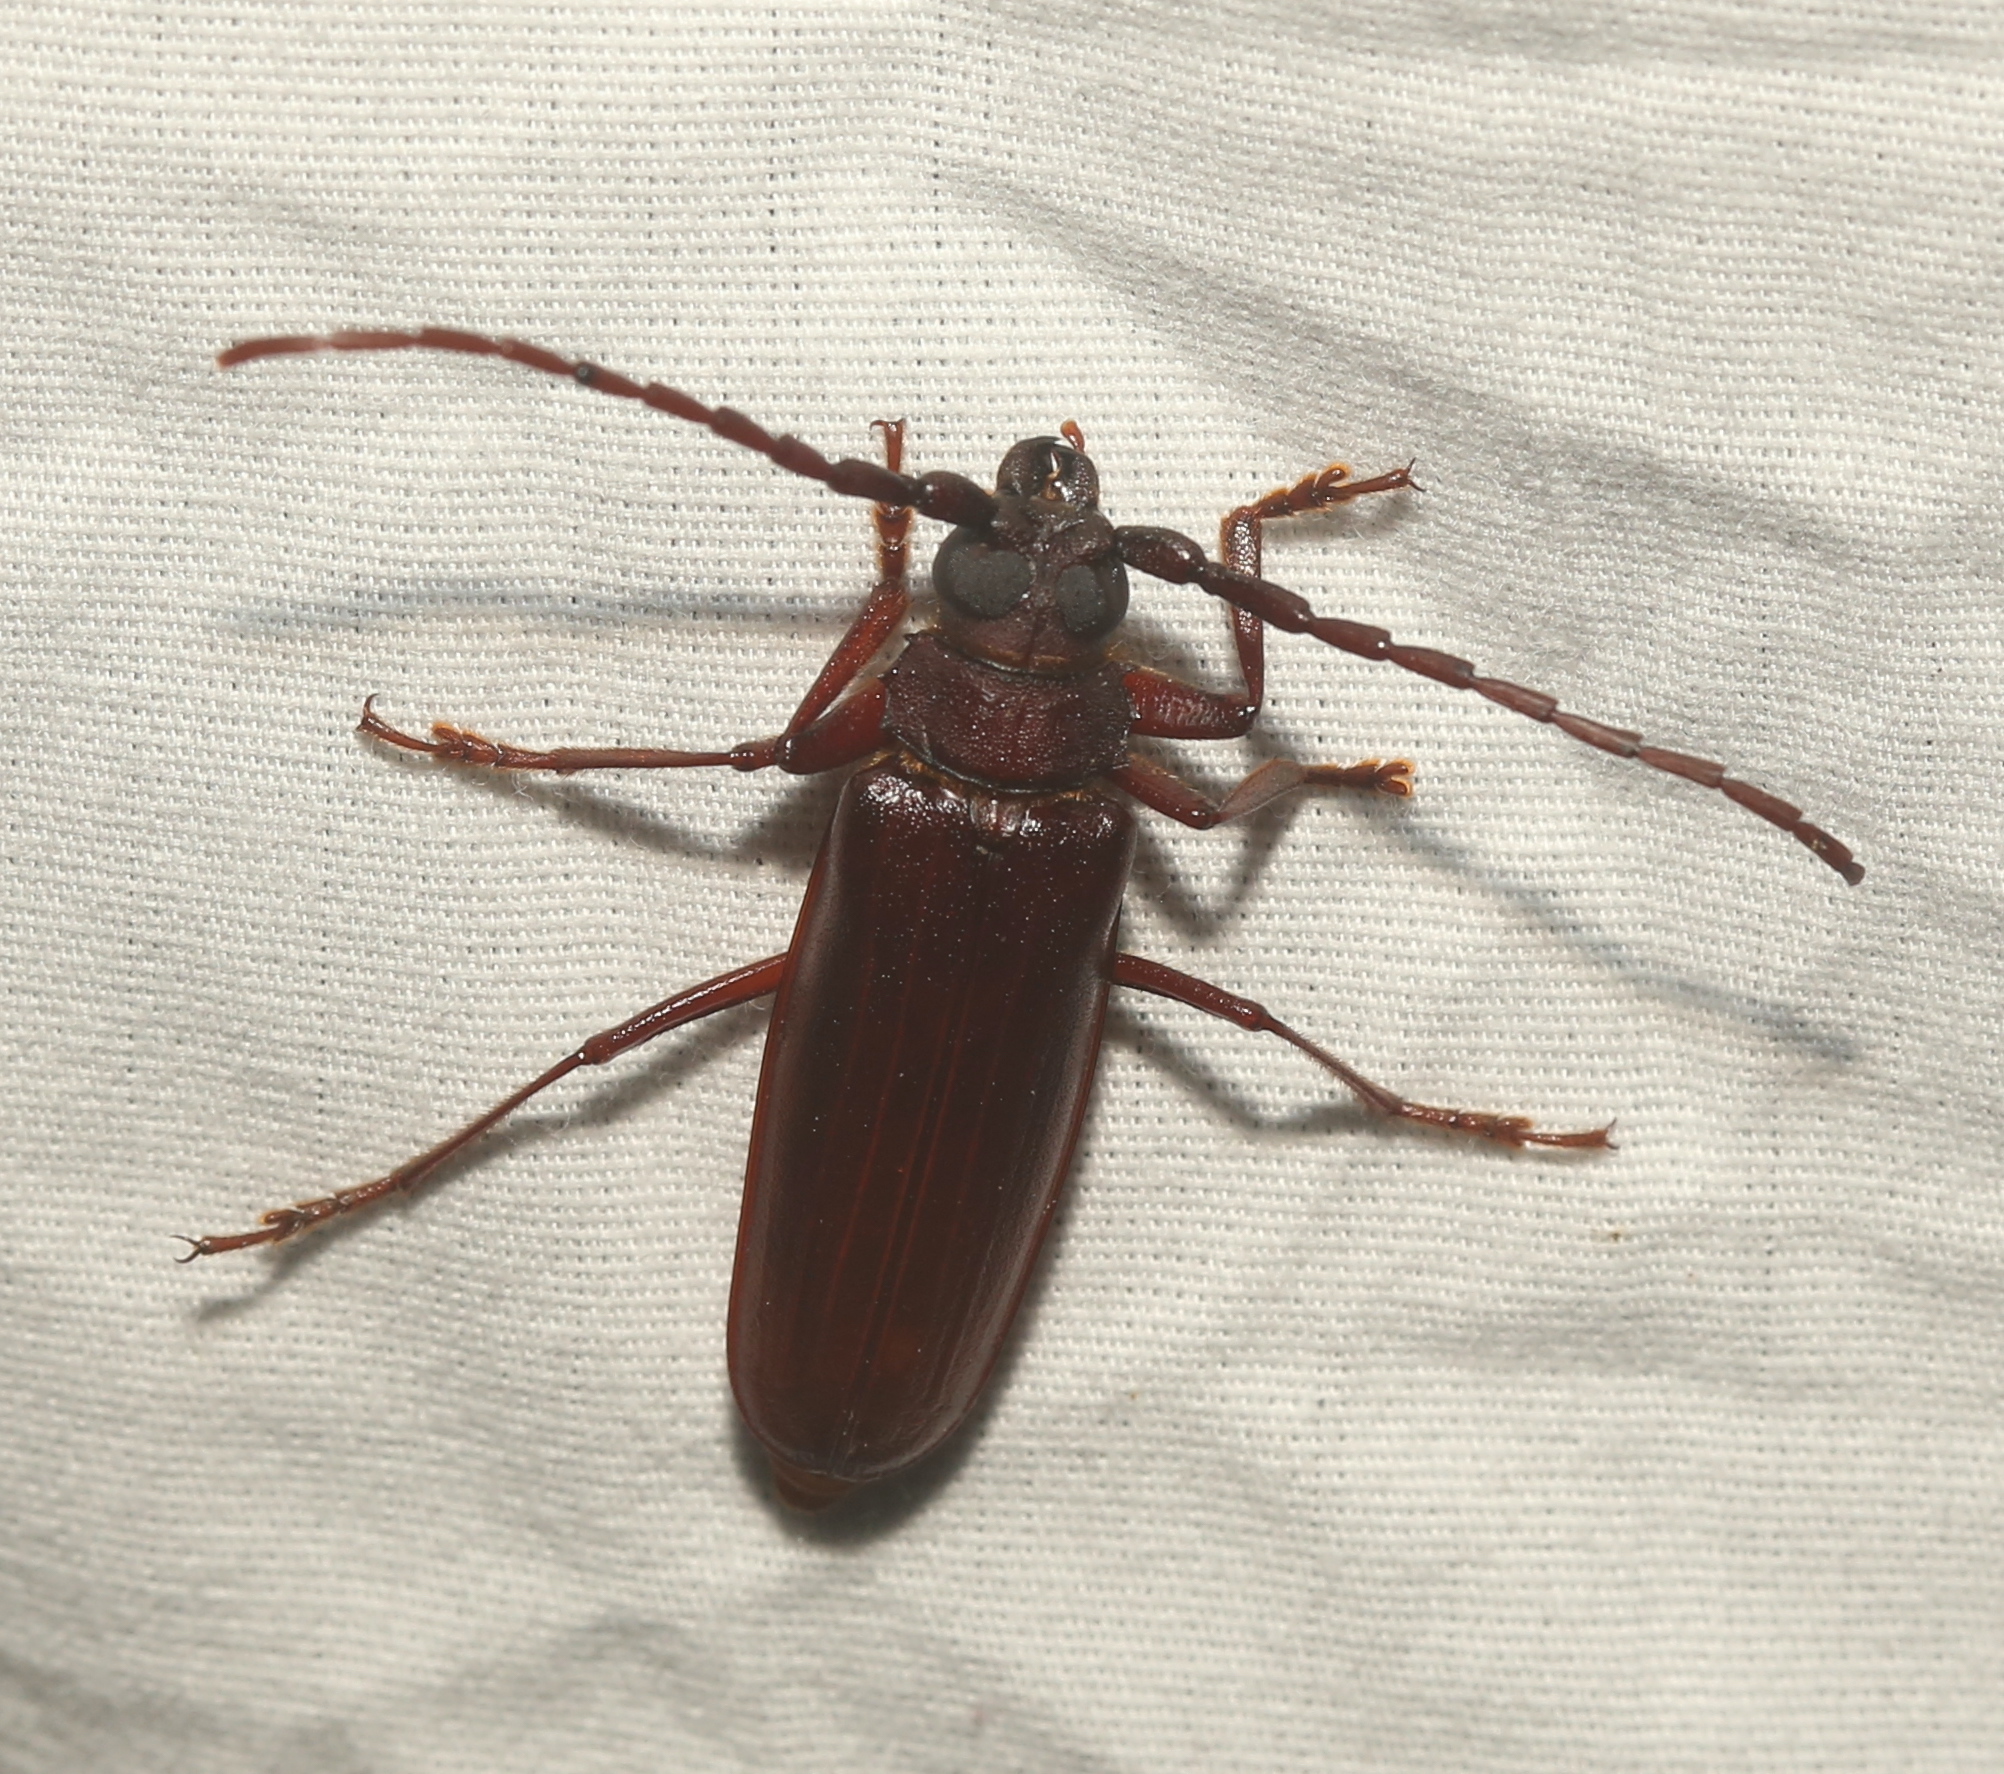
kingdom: Animalia
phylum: Arthropoda
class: Insecta
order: Coleoptera
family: Cerambycidae
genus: Orthosoma
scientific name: Orthosoma brunneum
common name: Brown prionid beetle
